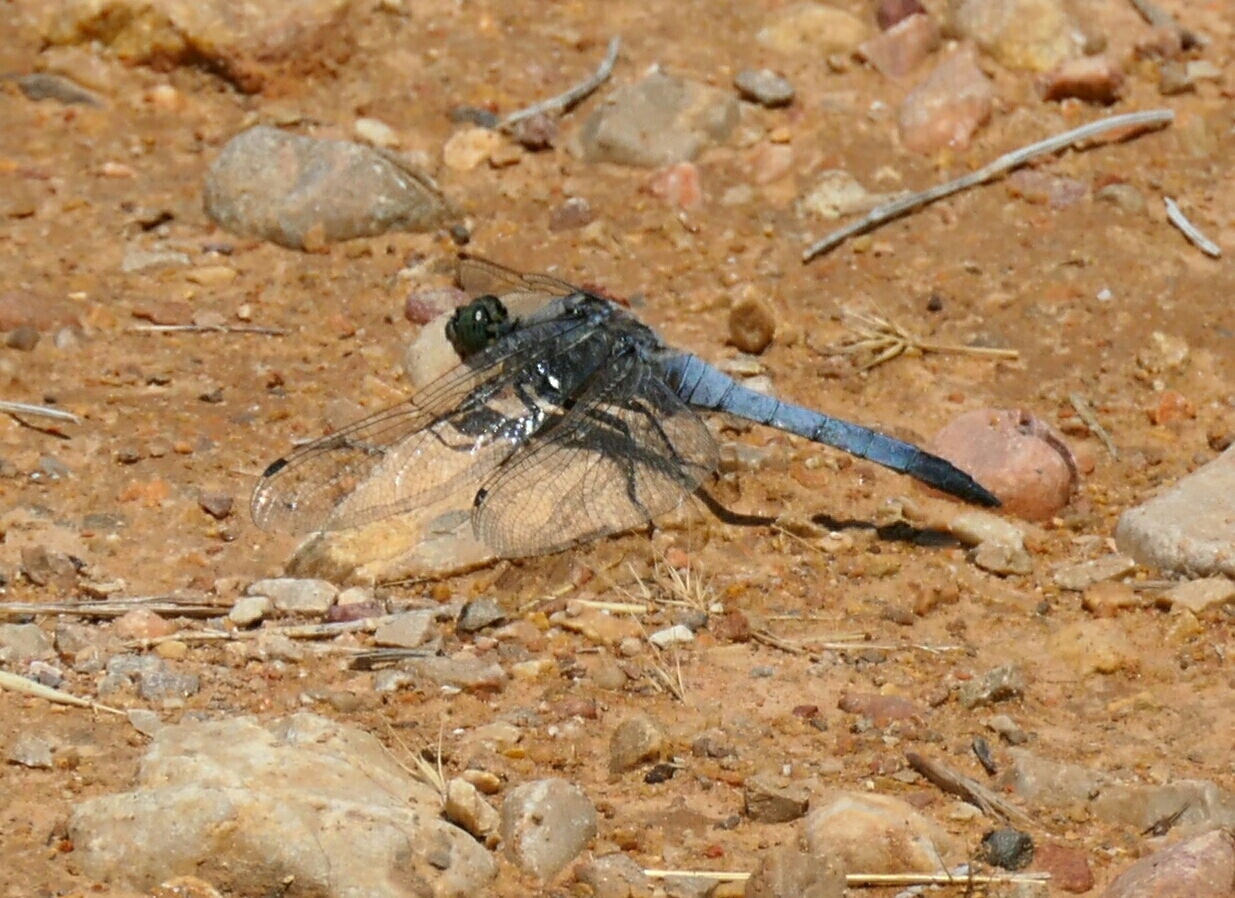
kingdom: Animalia
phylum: Arthropoda
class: Insecta
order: Odonata
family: Libellulidae
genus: Orthetrum
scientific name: Orthetrum cancellatum
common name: Black-tailed skimmer
